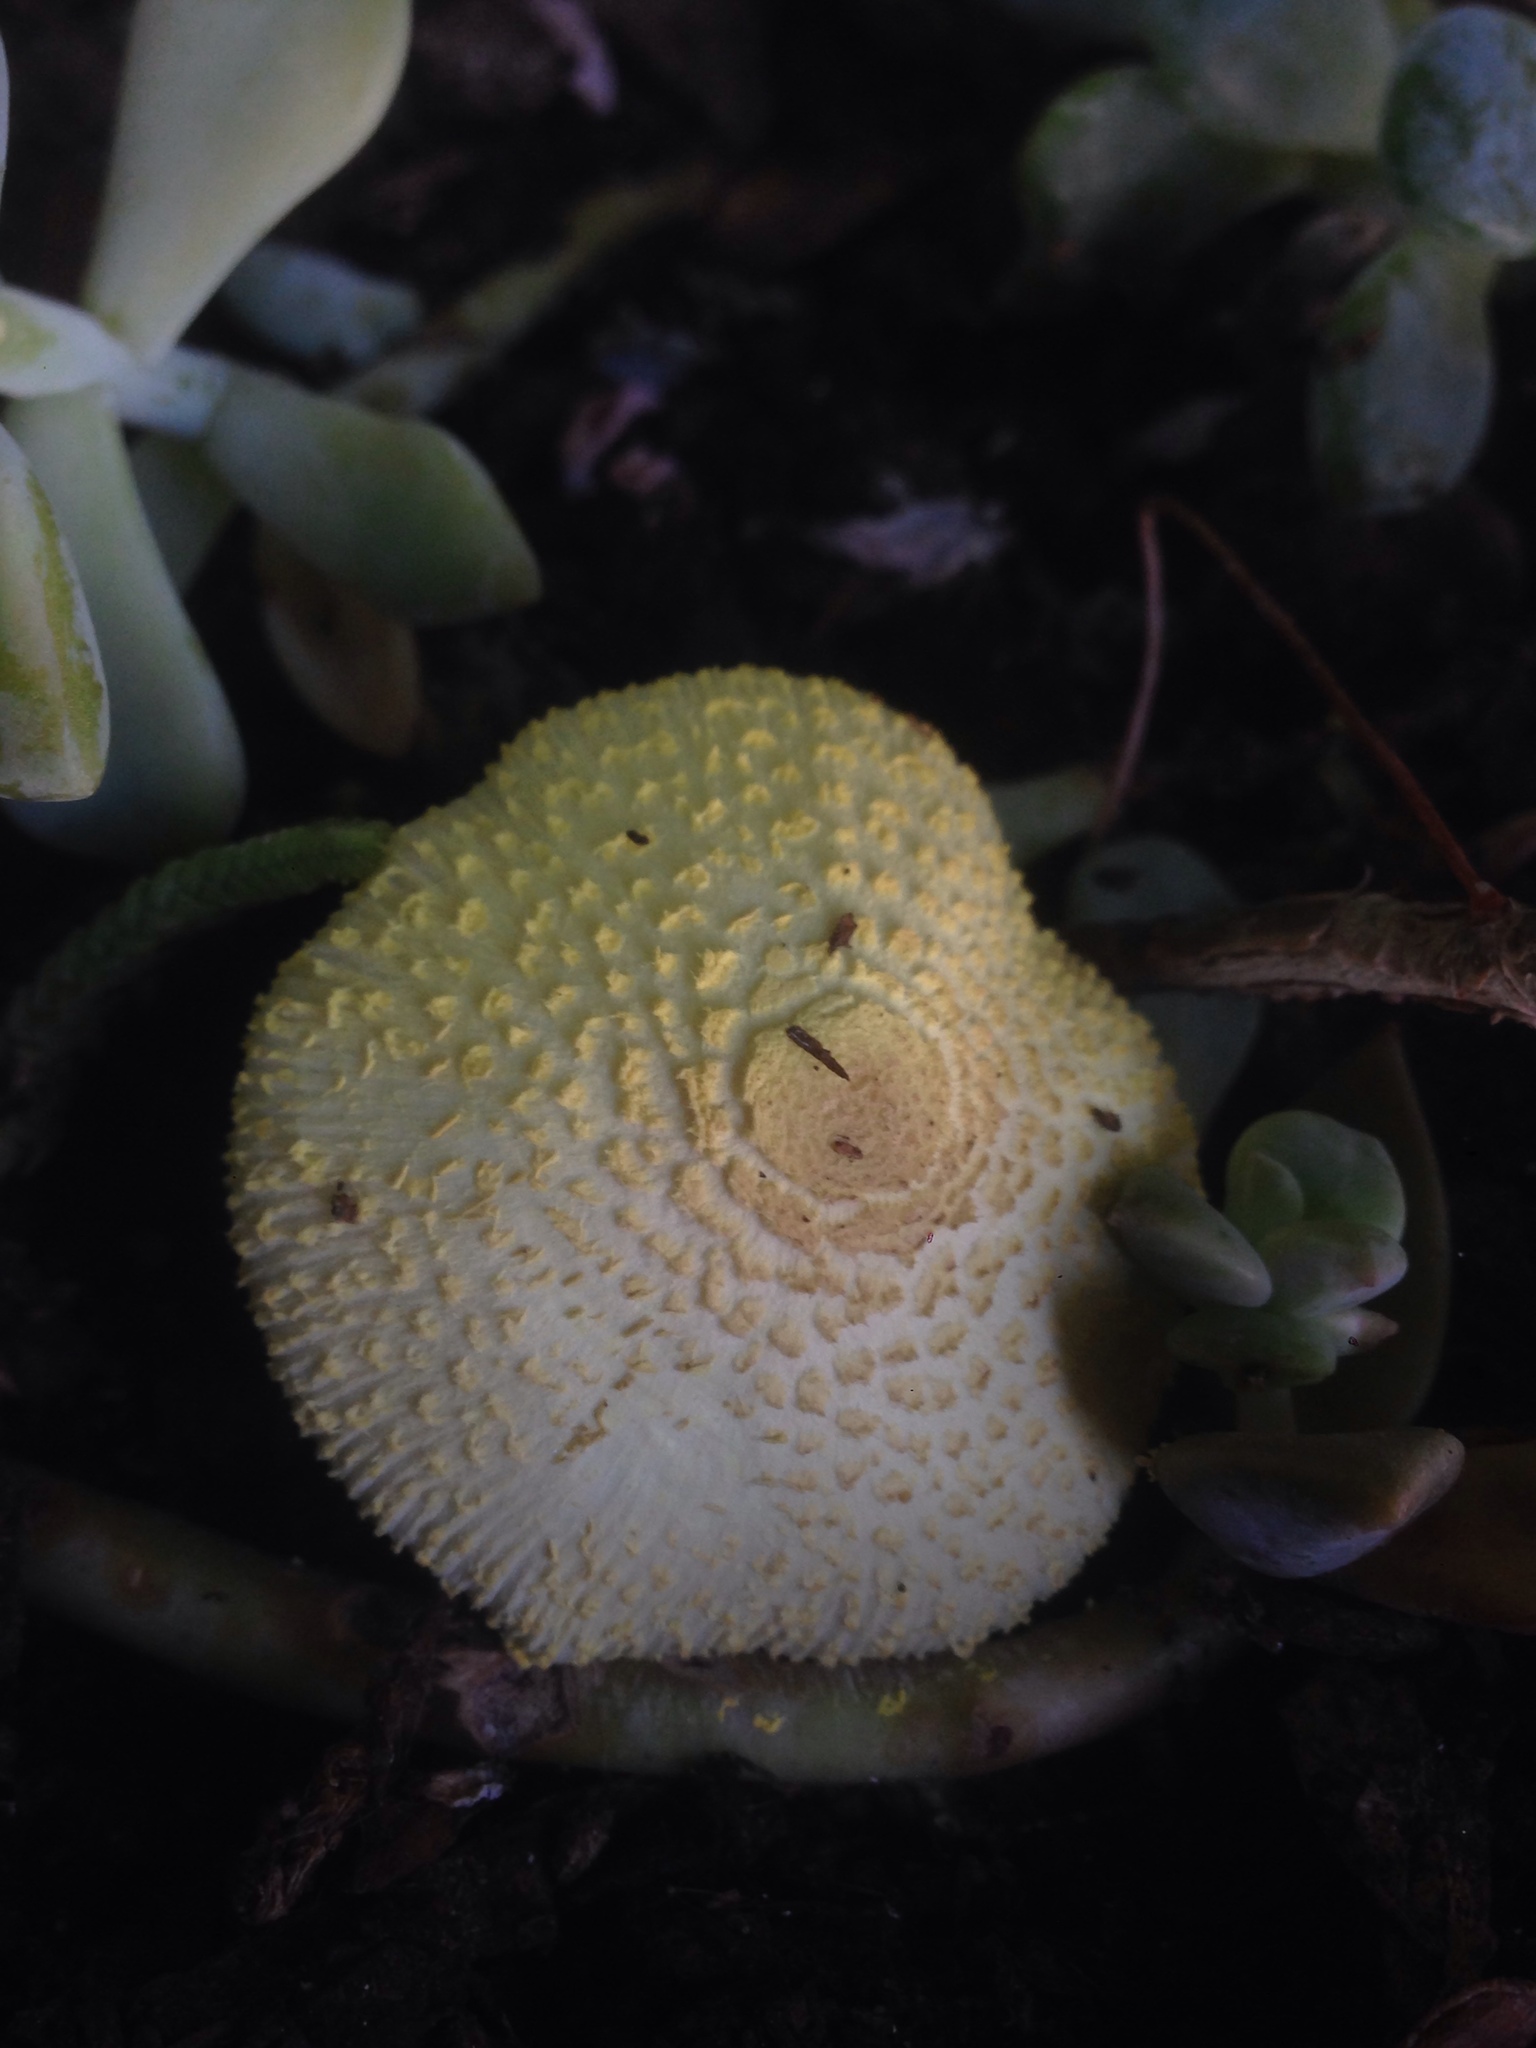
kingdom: Fungi
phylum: Basidiomycota
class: Agaricomycetes
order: Agaricales
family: Agaricaceae
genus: Leucocoprinus
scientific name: Leucocoprinus birnbaumii
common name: Plantpot dapperling
